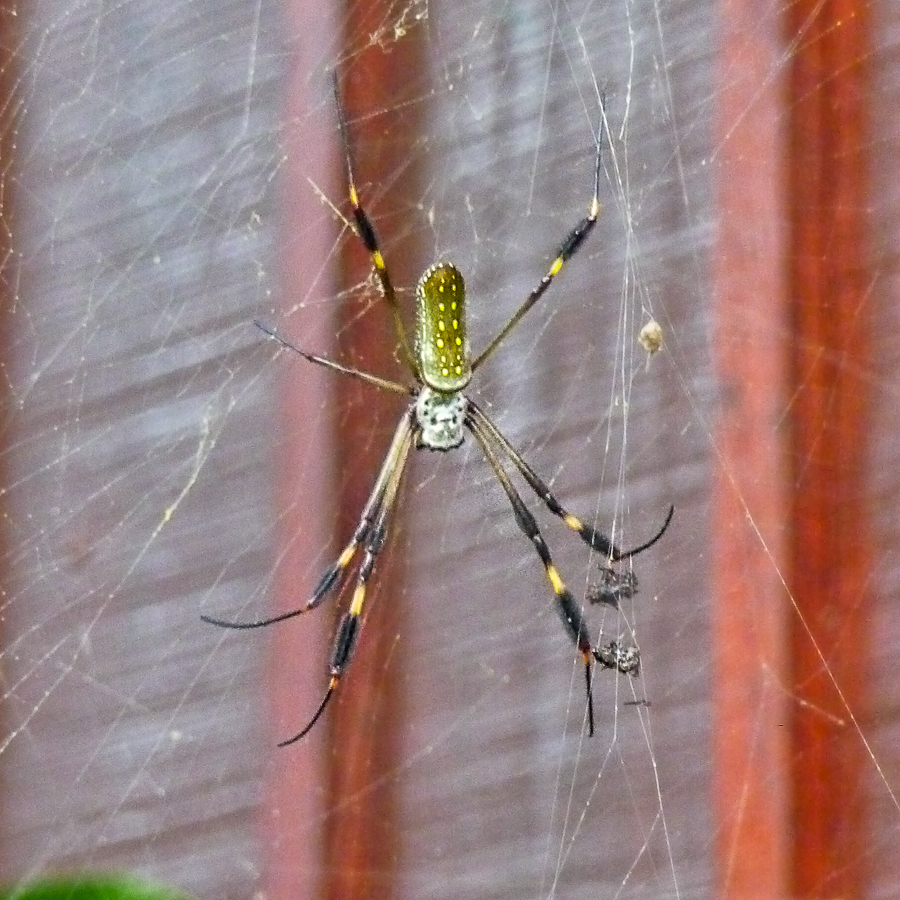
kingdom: Animalia
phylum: Arthropoda
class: Arachnida
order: Araneae
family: Araneidae
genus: Trichonephila
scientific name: Trichonephila clavipes
